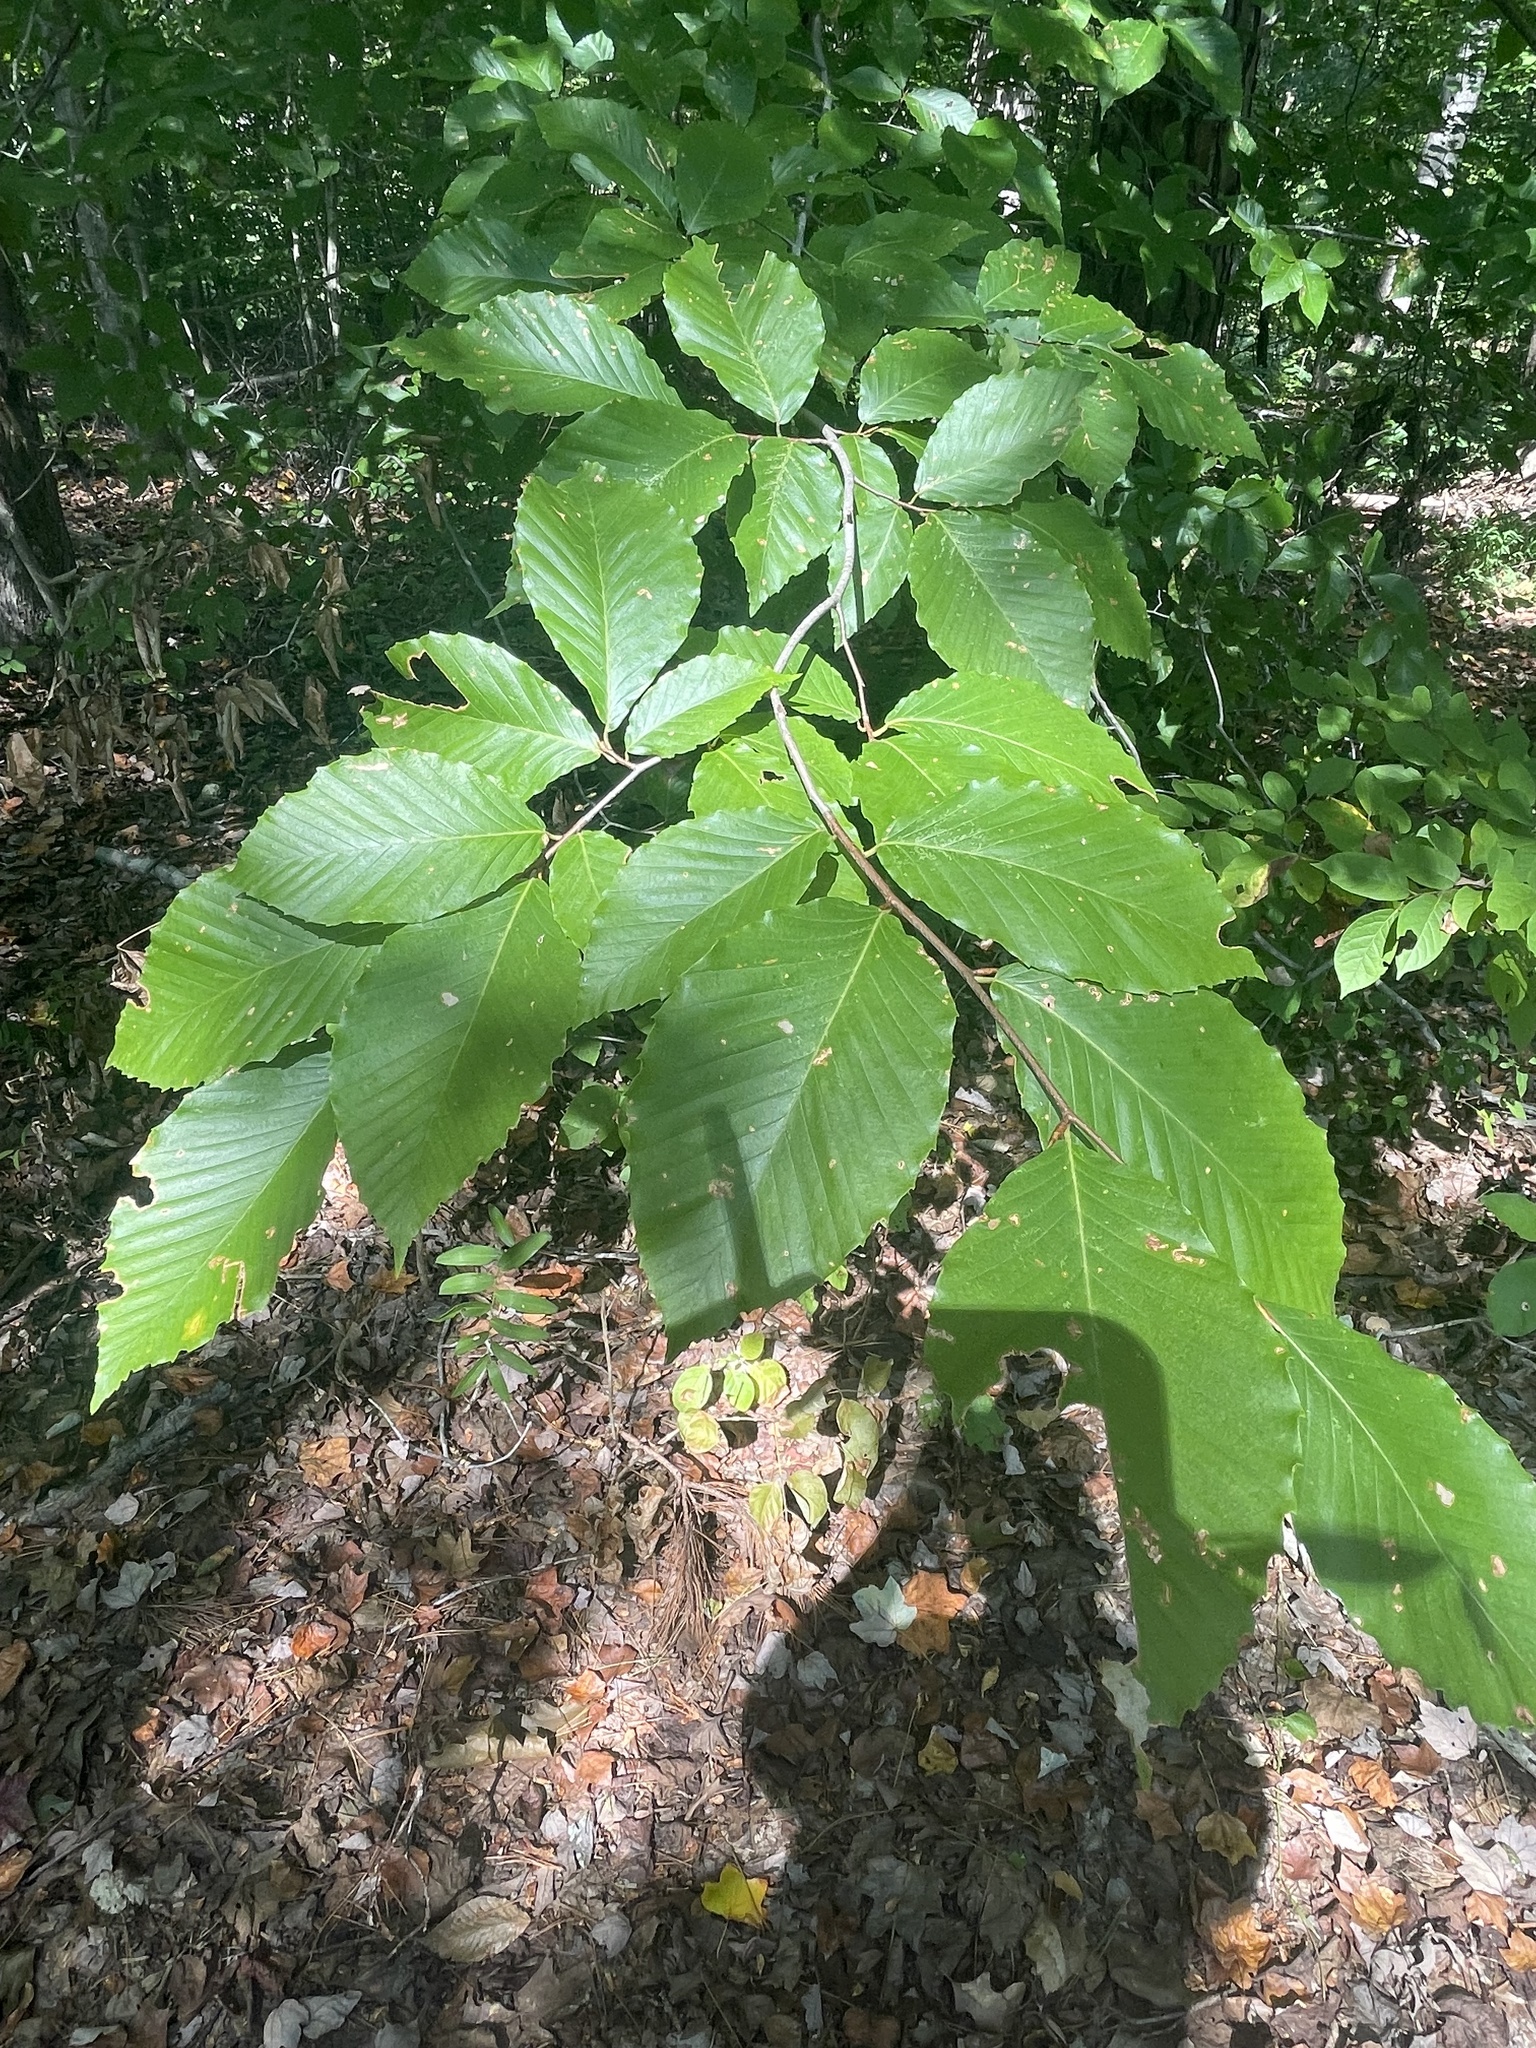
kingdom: Plantae
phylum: Tracheophyta
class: Magnoliopsida
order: Fagales
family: Fagaceae
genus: Fagus
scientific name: Fagus grandifolia
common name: American beech
